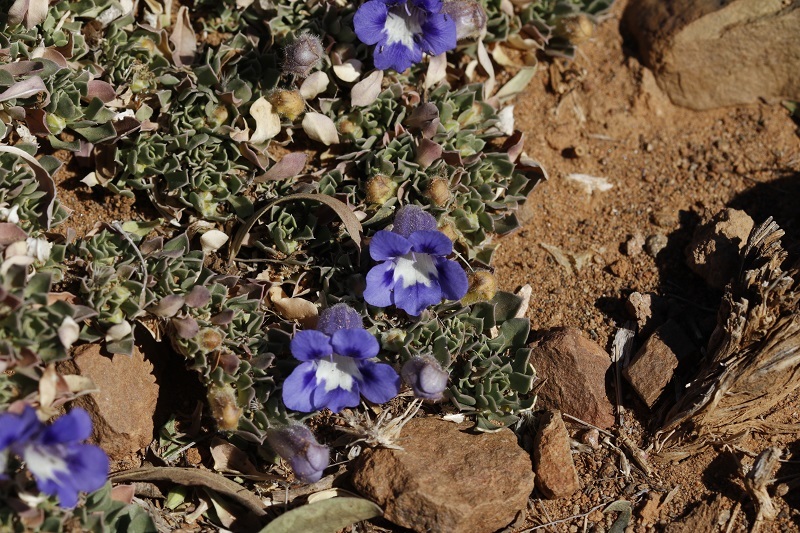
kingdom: Plantae
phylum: Tracheophyta
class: Magnoliopsida
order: Lamiales
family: Scrophulariaceae
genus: Aptosimum
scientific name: Aptosimum procumbens
